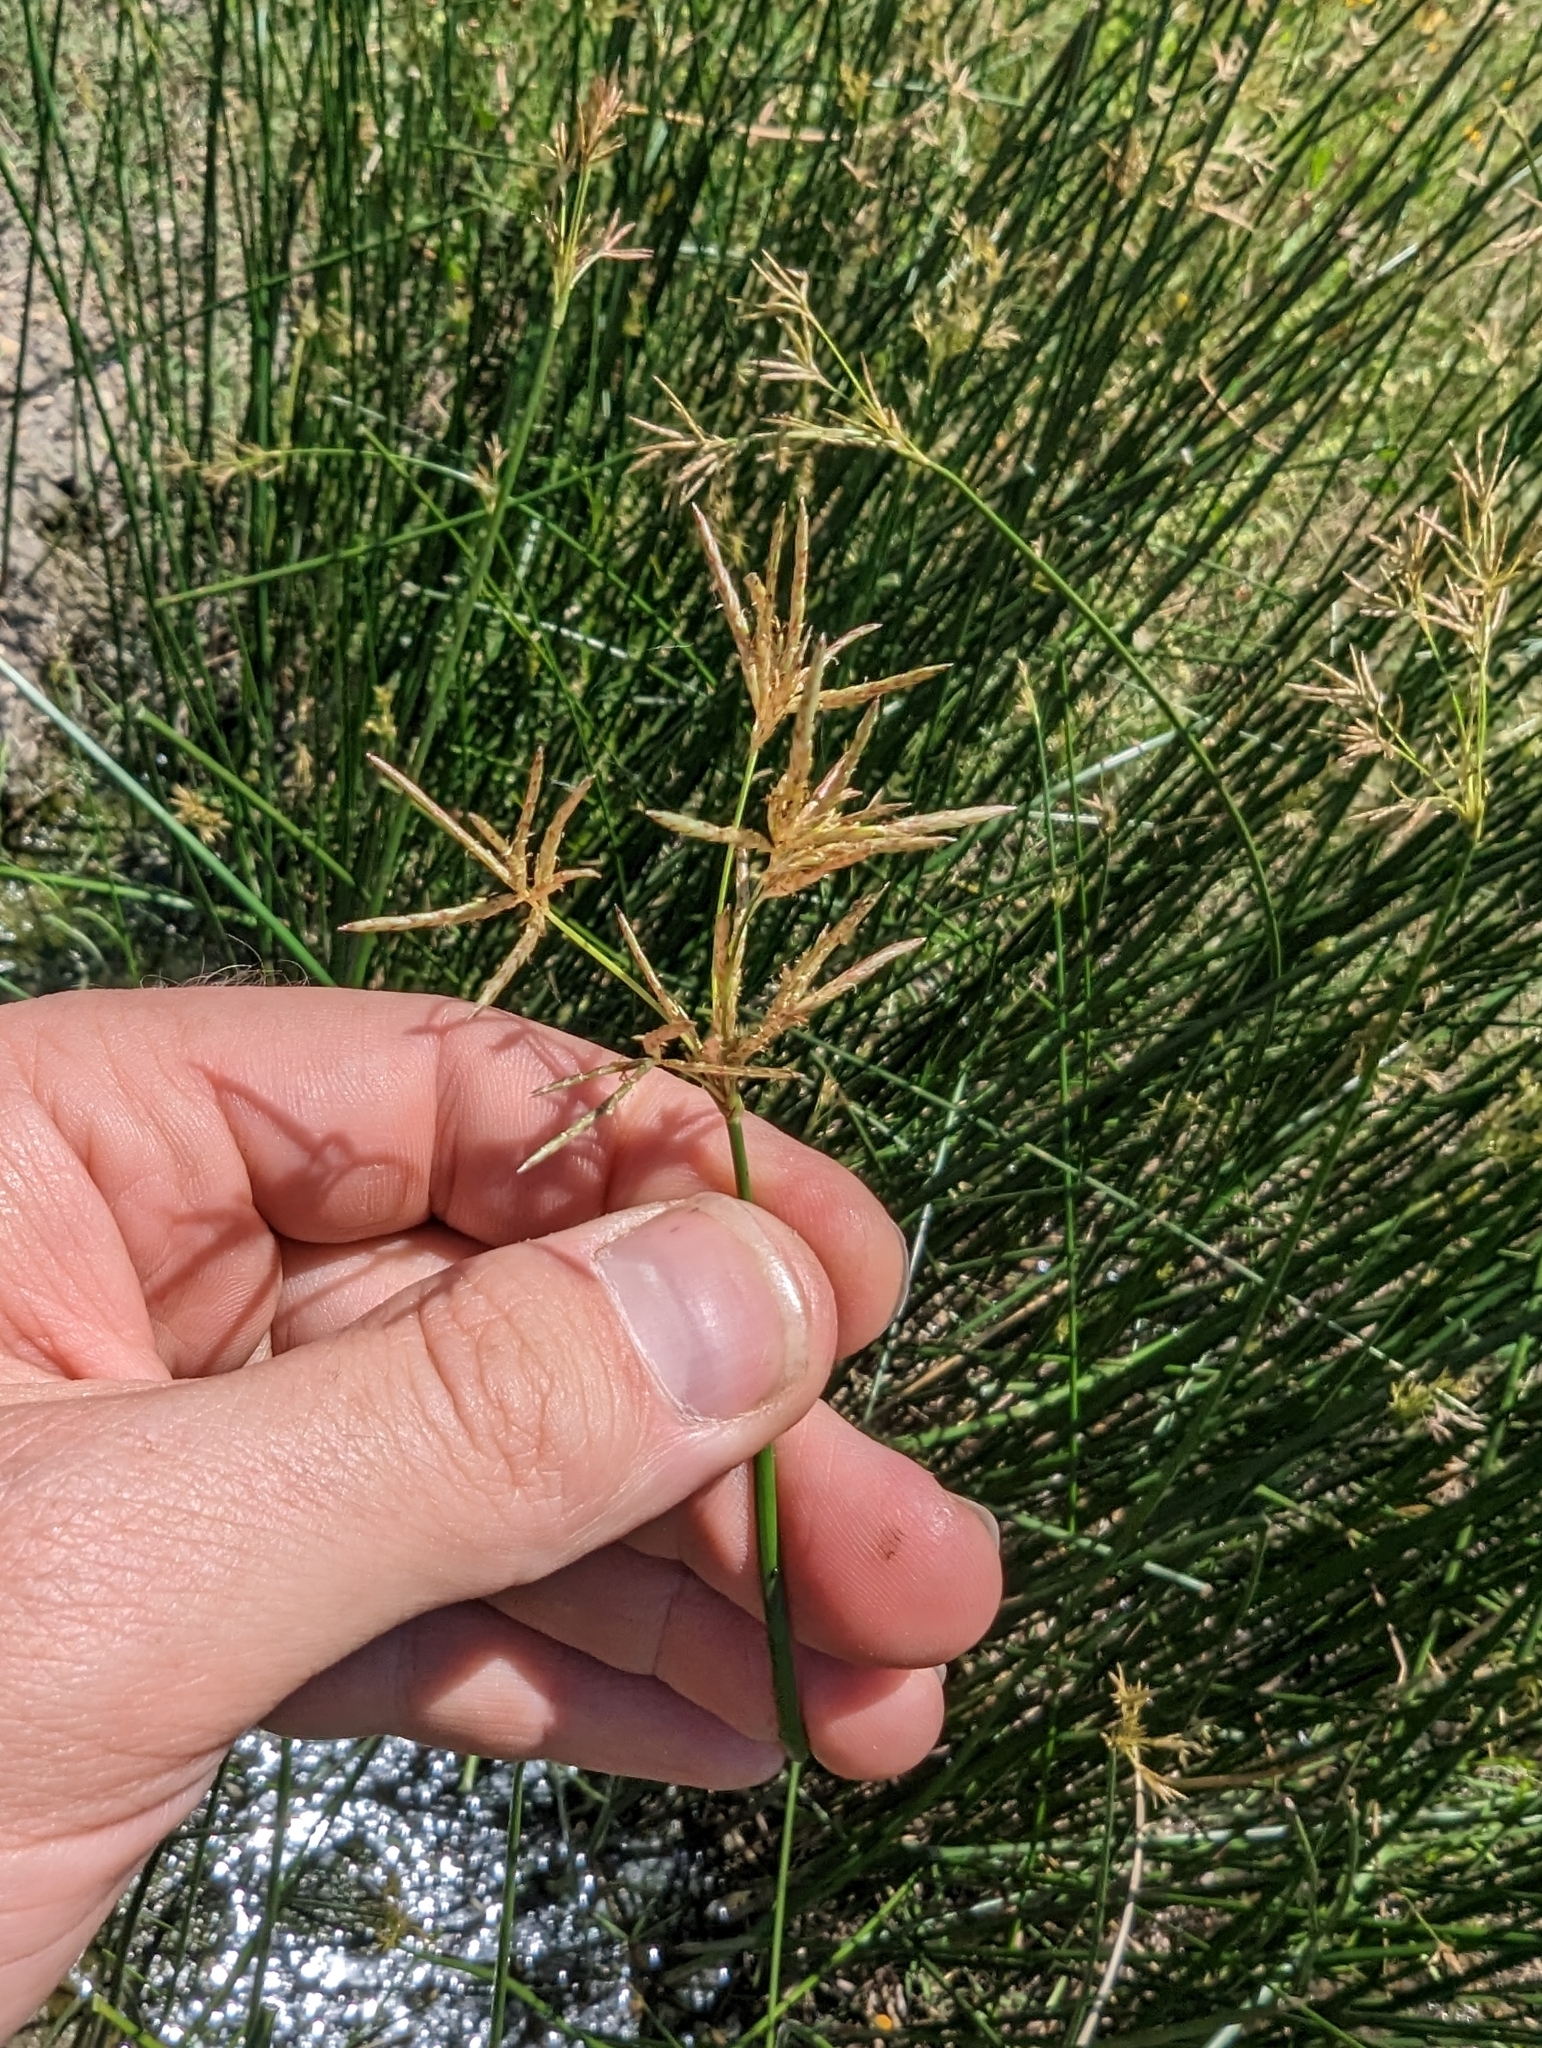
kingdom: Plantae
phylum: Tracheophyta
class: Liliopsida
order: Poales
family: Cyperaceae
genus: Cyperus
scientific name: Cyperus articulatus
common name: Jointed flatsedge
